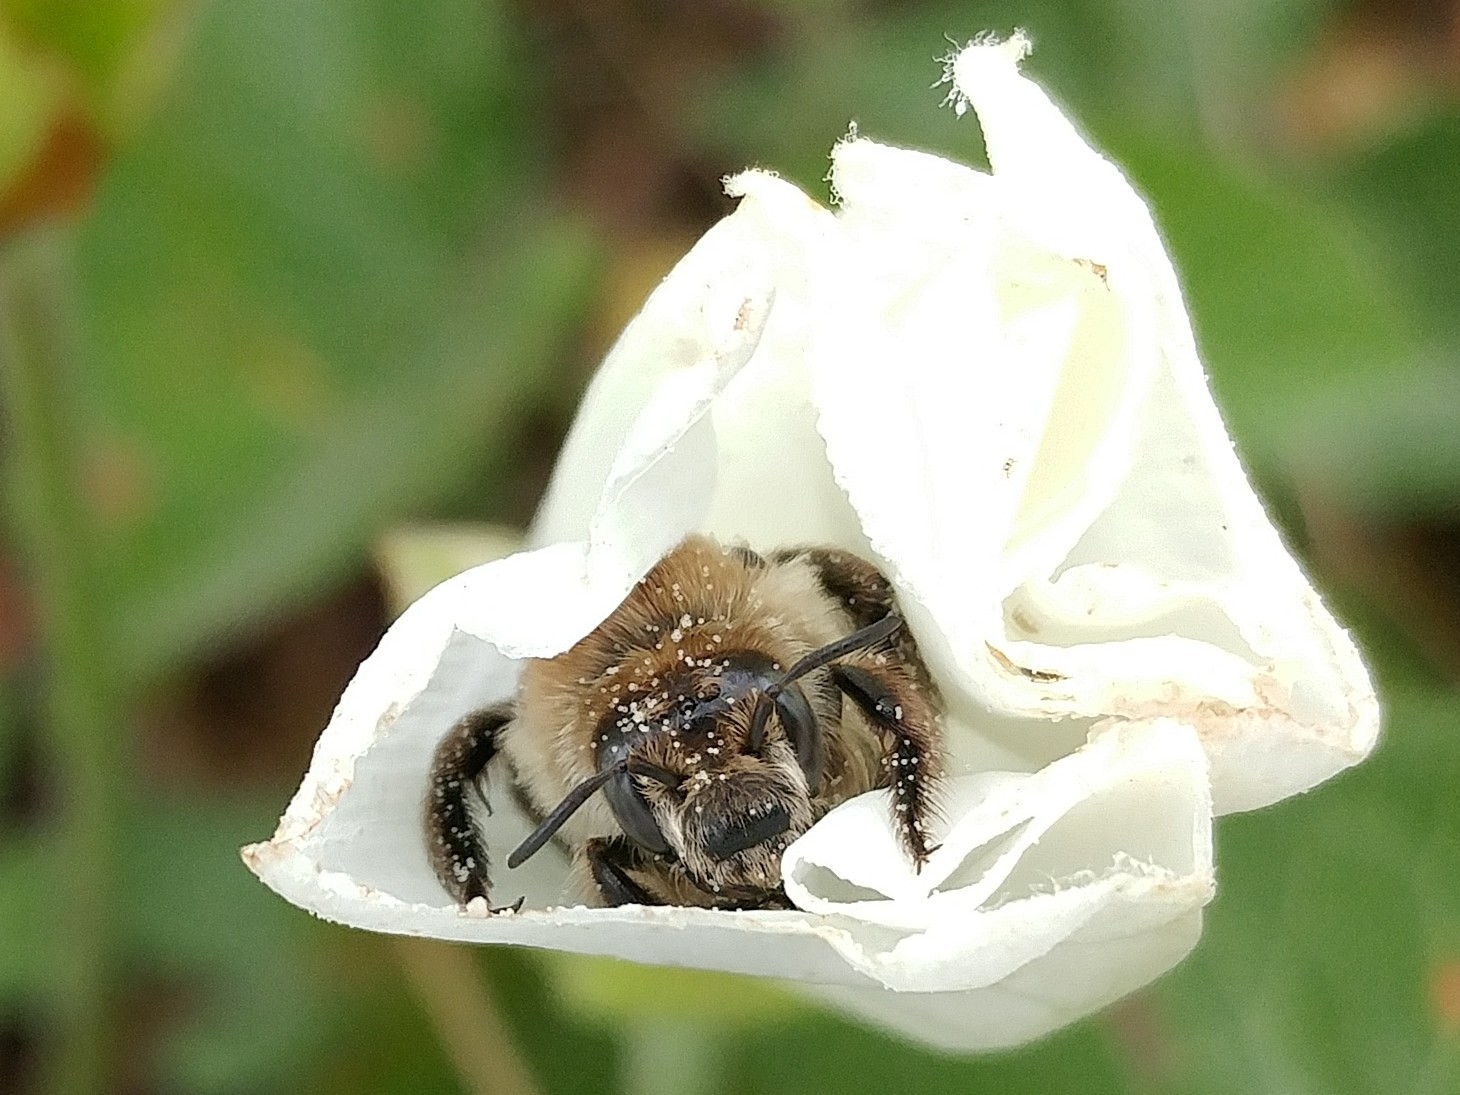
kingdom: Animalia
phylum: Arthropoda
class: Insecta
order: Hymenoptera
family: Apidae
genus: Diadasia
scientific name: Diadasia bituberculata
